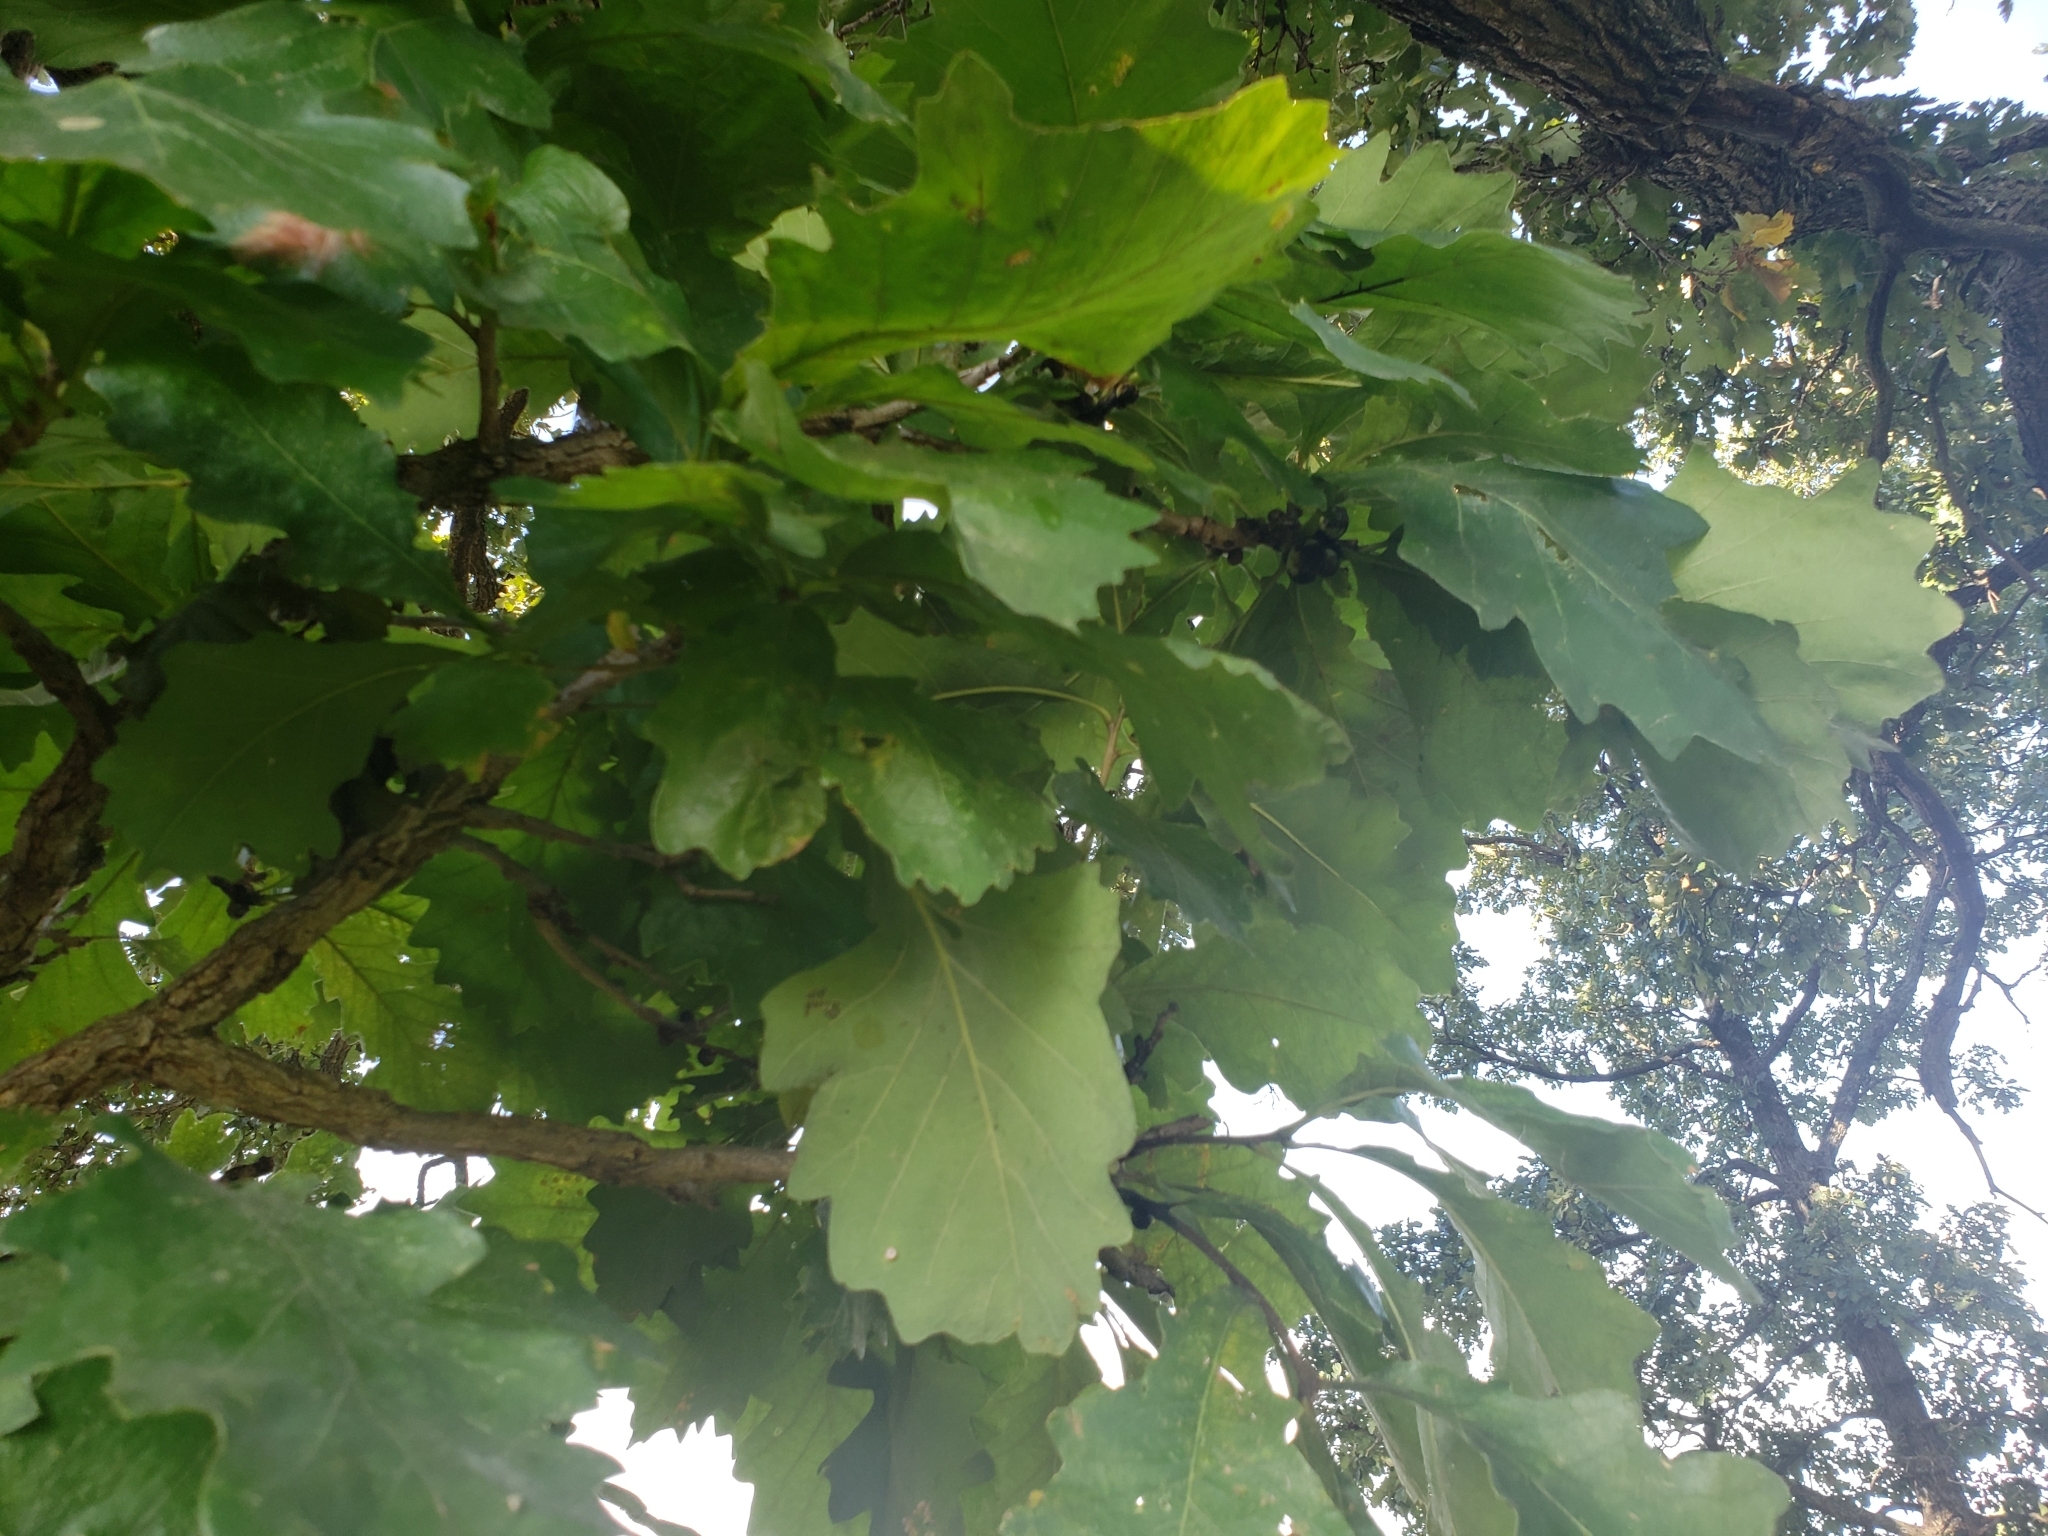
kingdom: Animalia
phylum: Arthropoda
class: Insecta
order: Hymenoptera
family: Cynipidae
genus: Disholcaspis
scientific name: Disholcaspis
